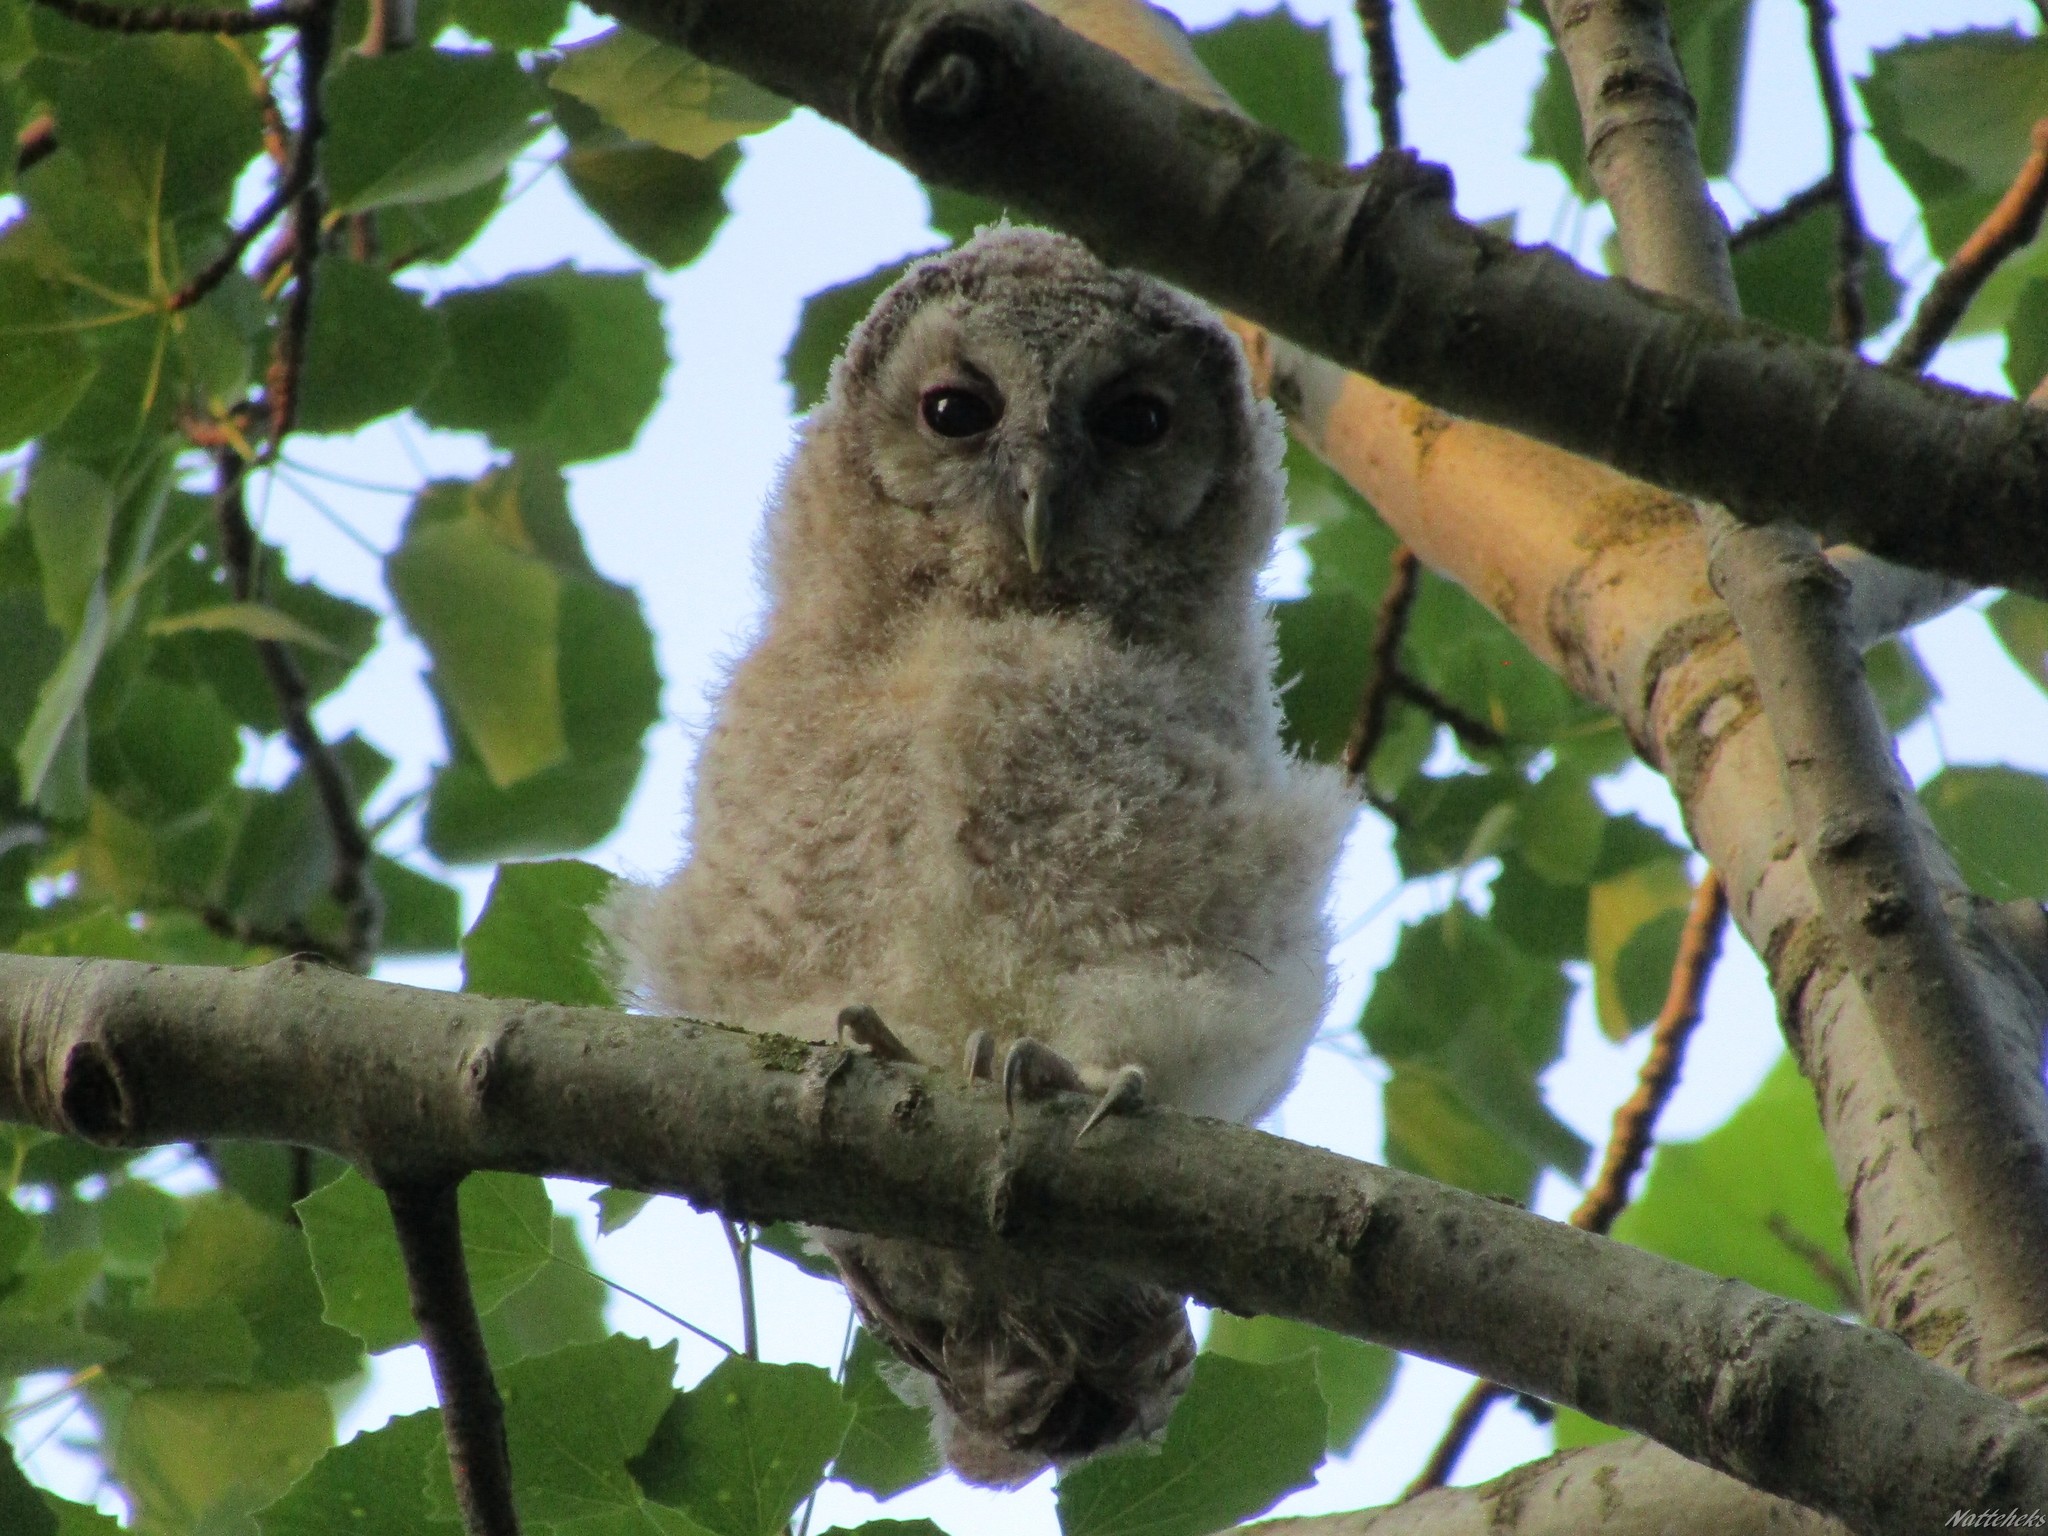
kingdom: Animalia
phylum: Chordata
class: Aves
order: Strigiformes
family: Strigidae
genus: Strix
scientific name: Strix aluco
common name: Tawny owl
